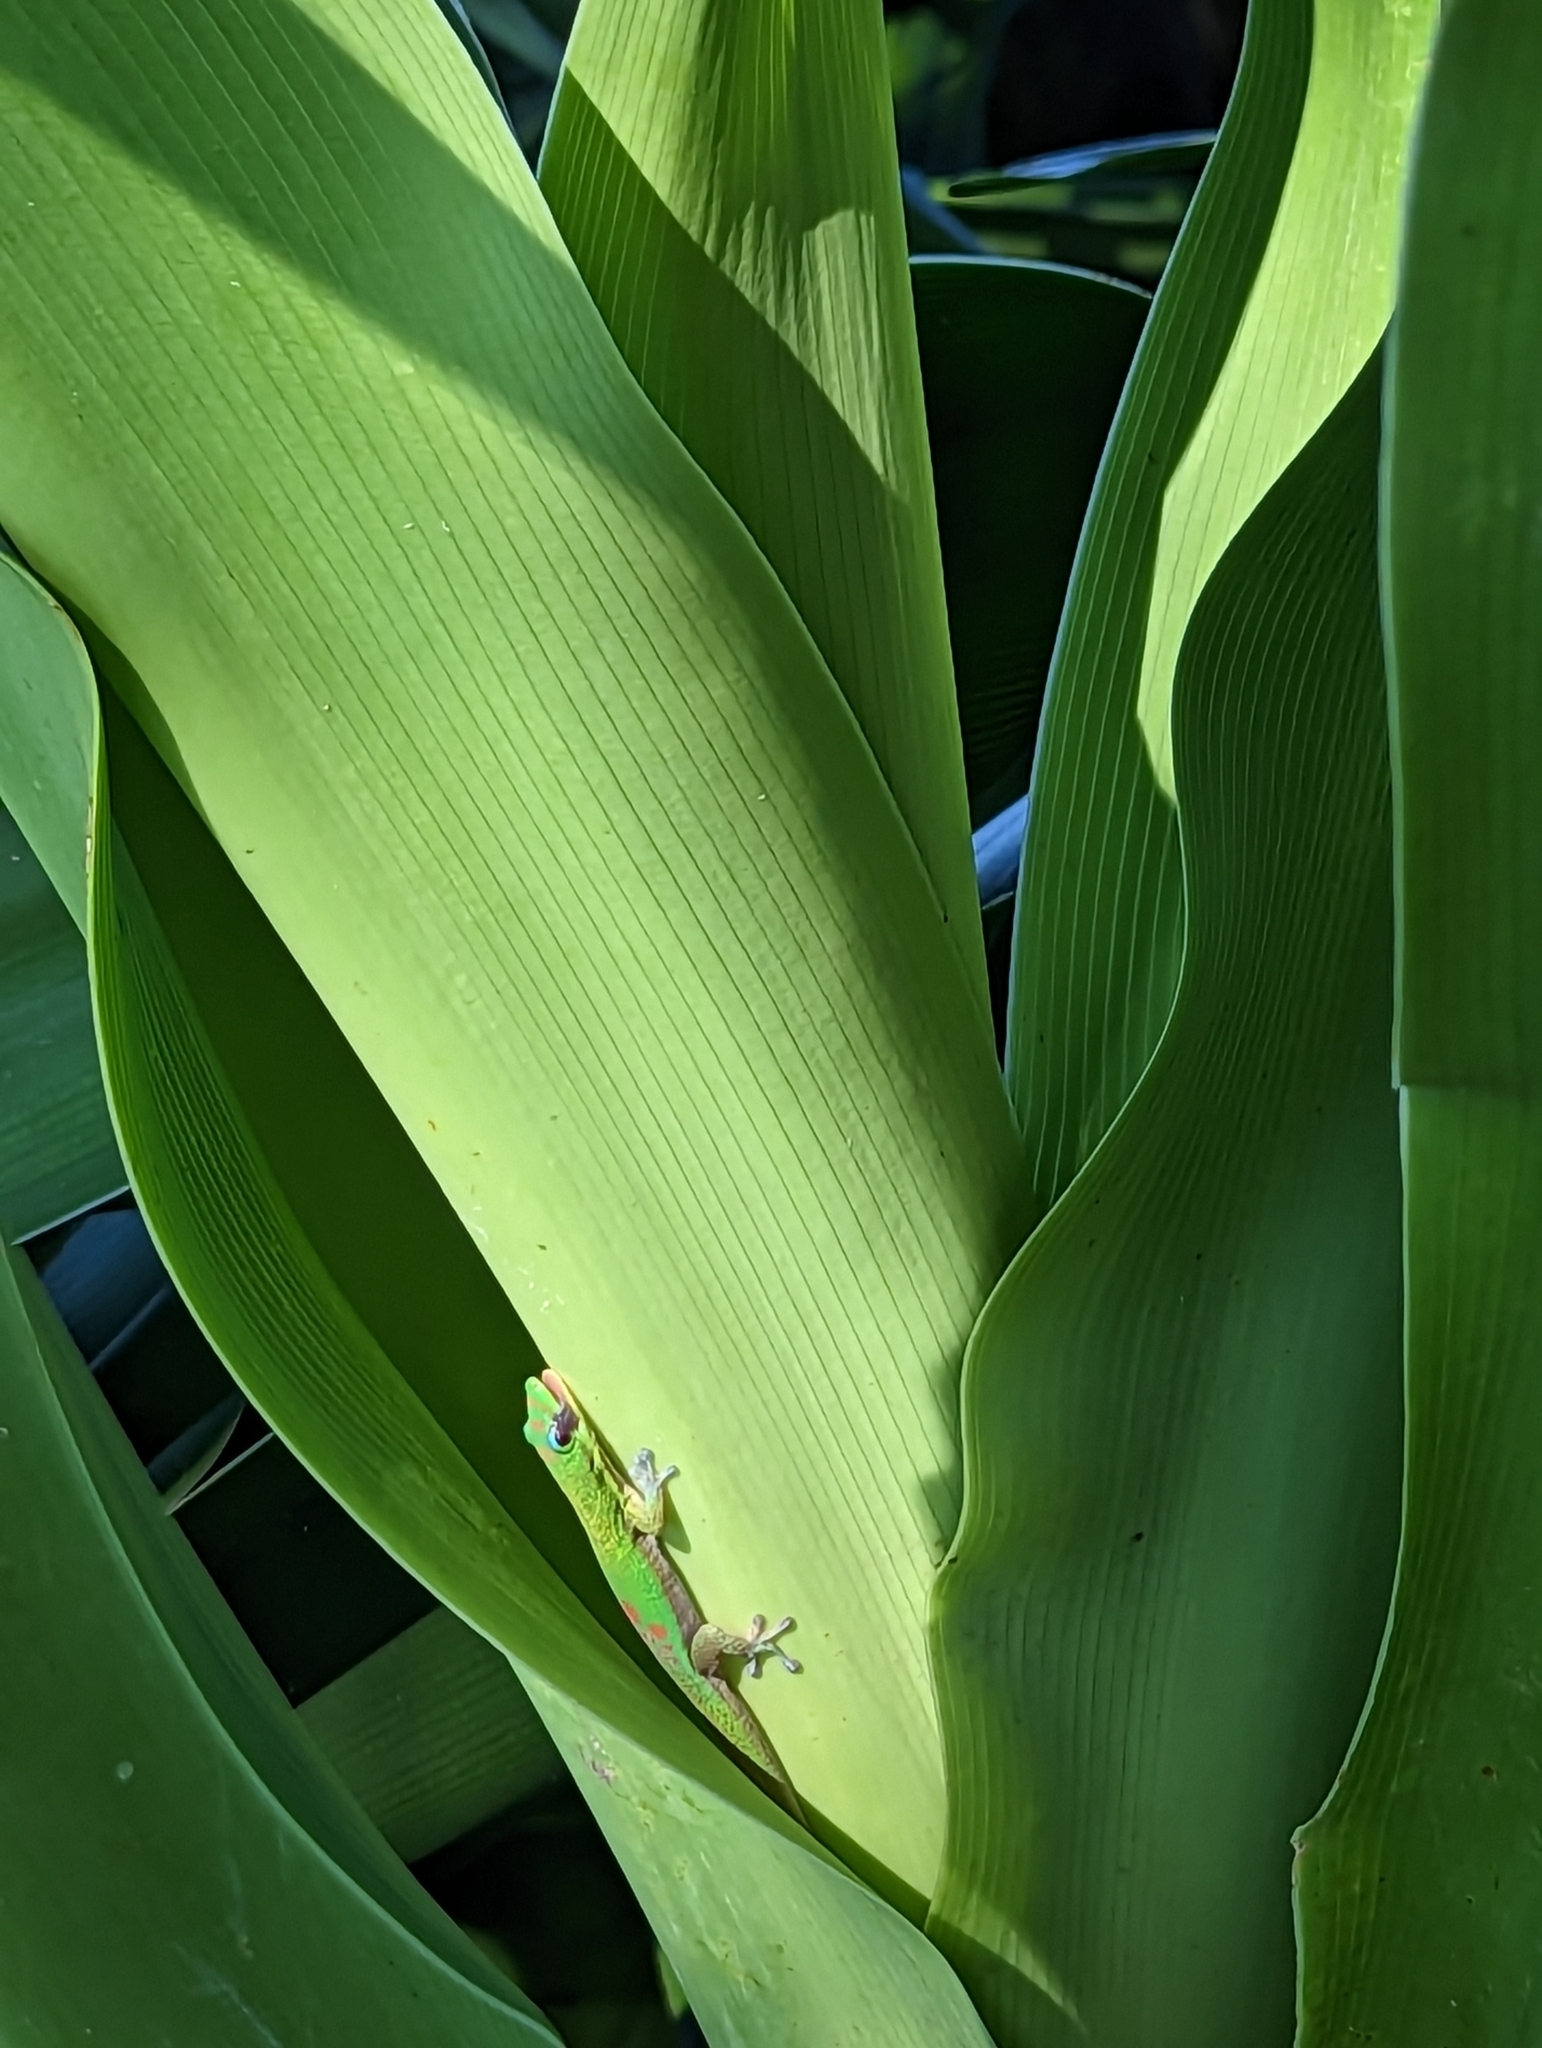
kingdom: Animalia
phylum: Chordata
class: Squamata
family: Gekkonidae
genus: Phelsuma
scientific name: Phelsuma laticauda
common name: Gold dust day gecko
